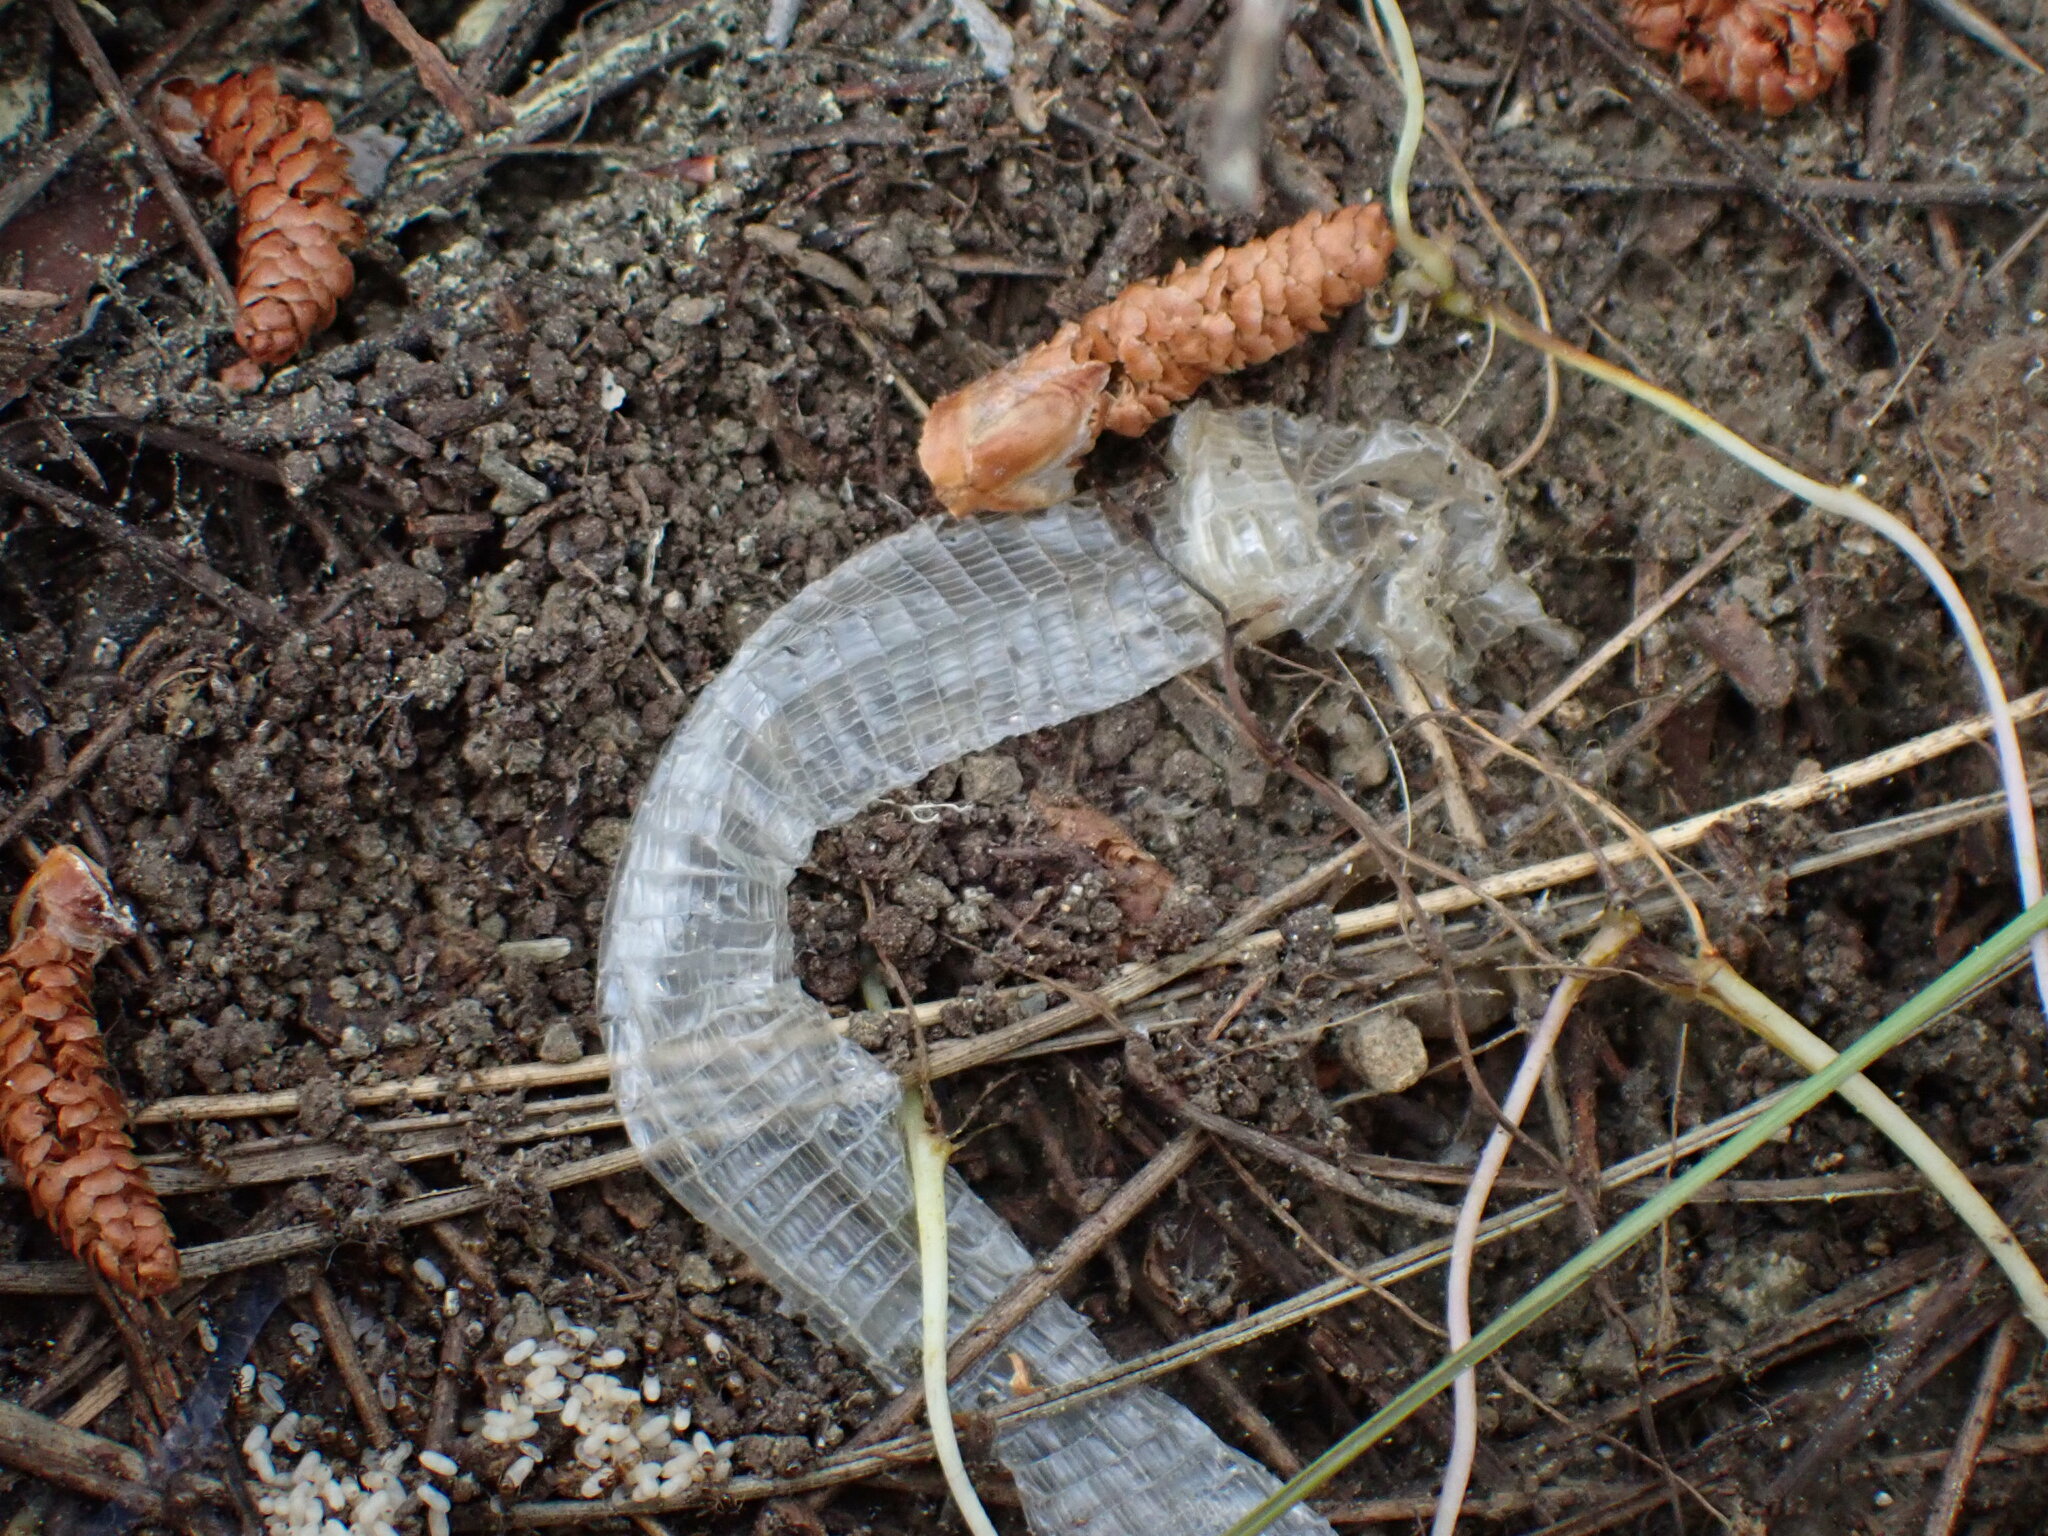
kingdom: Animalia
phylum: Chordata
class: Squamata
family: Blanidae
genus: Blanus
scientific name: Blanus aporus
